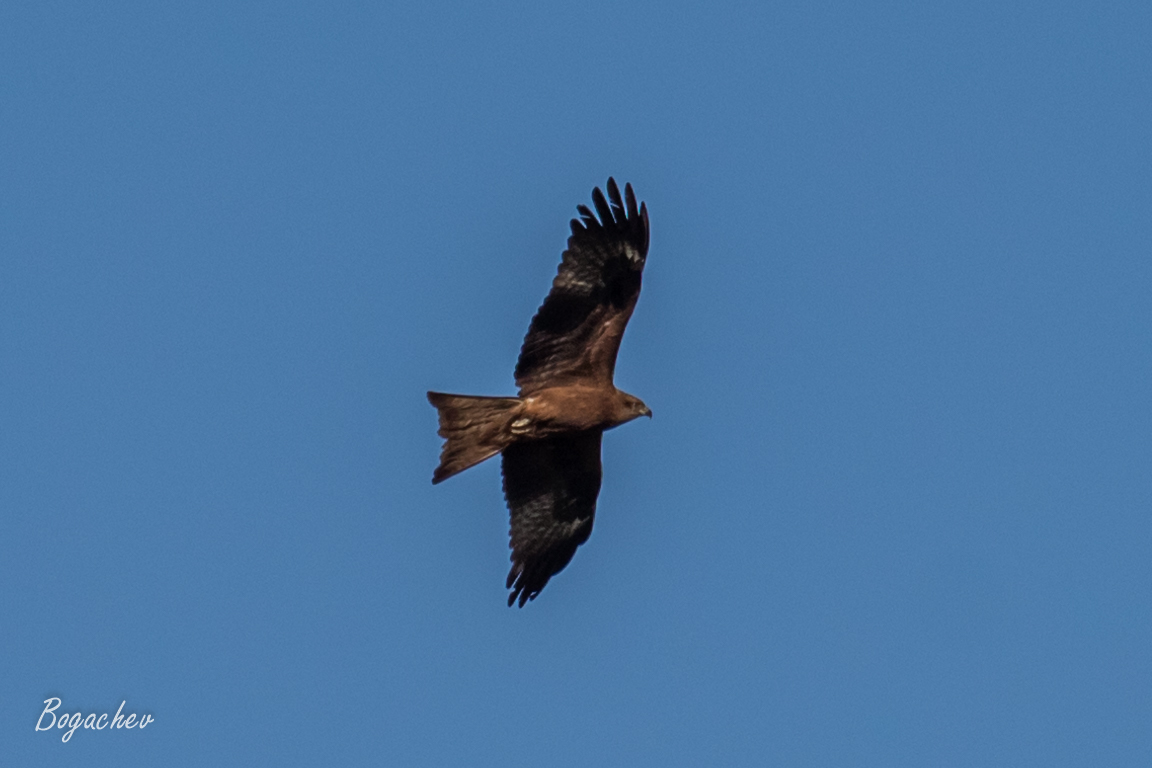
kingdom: Animalia
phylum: Chordata
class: Aves
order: Accipitriformes
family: Accipitridae
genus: Milvus
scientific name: Milvus migrans
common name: Black kite
